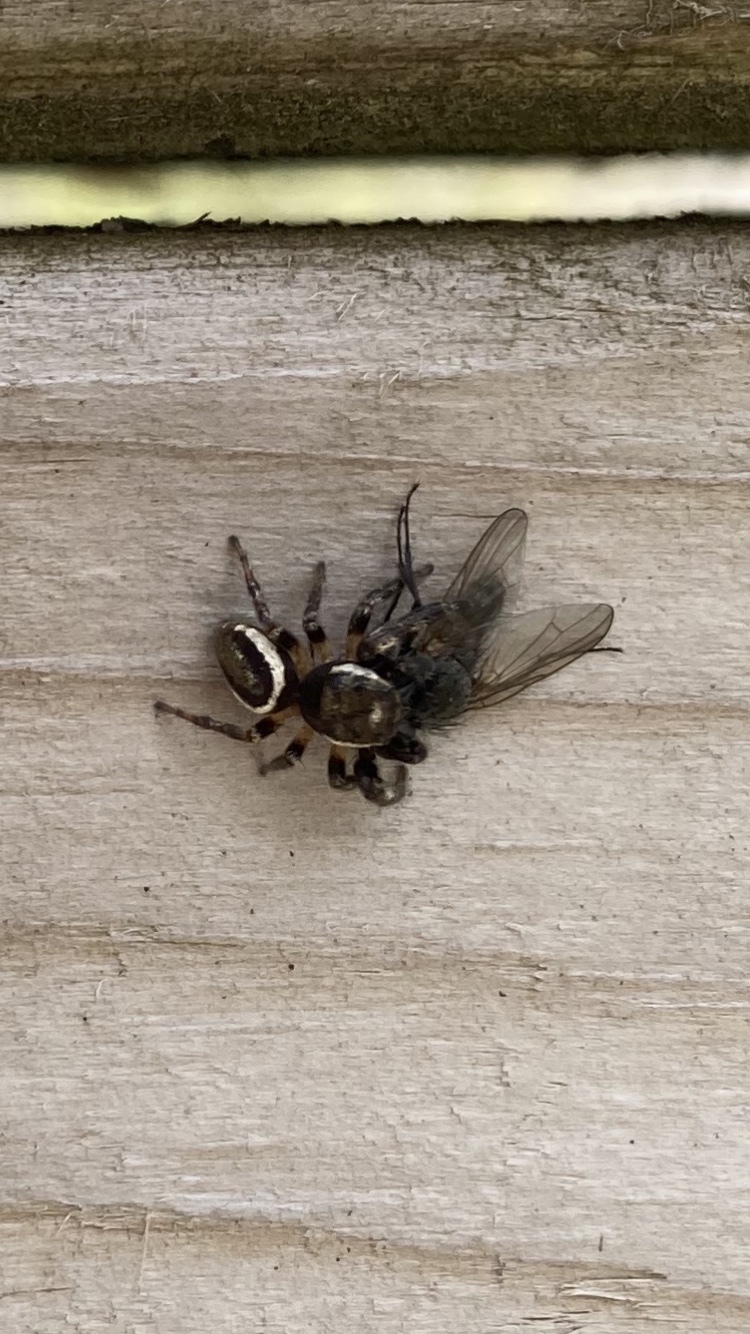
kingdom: Animalia
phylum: Arthropoda
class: Arachnida
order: Araneae
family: Salticidae
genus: Eris
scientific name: Eris militaris
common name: Bronze jumper
